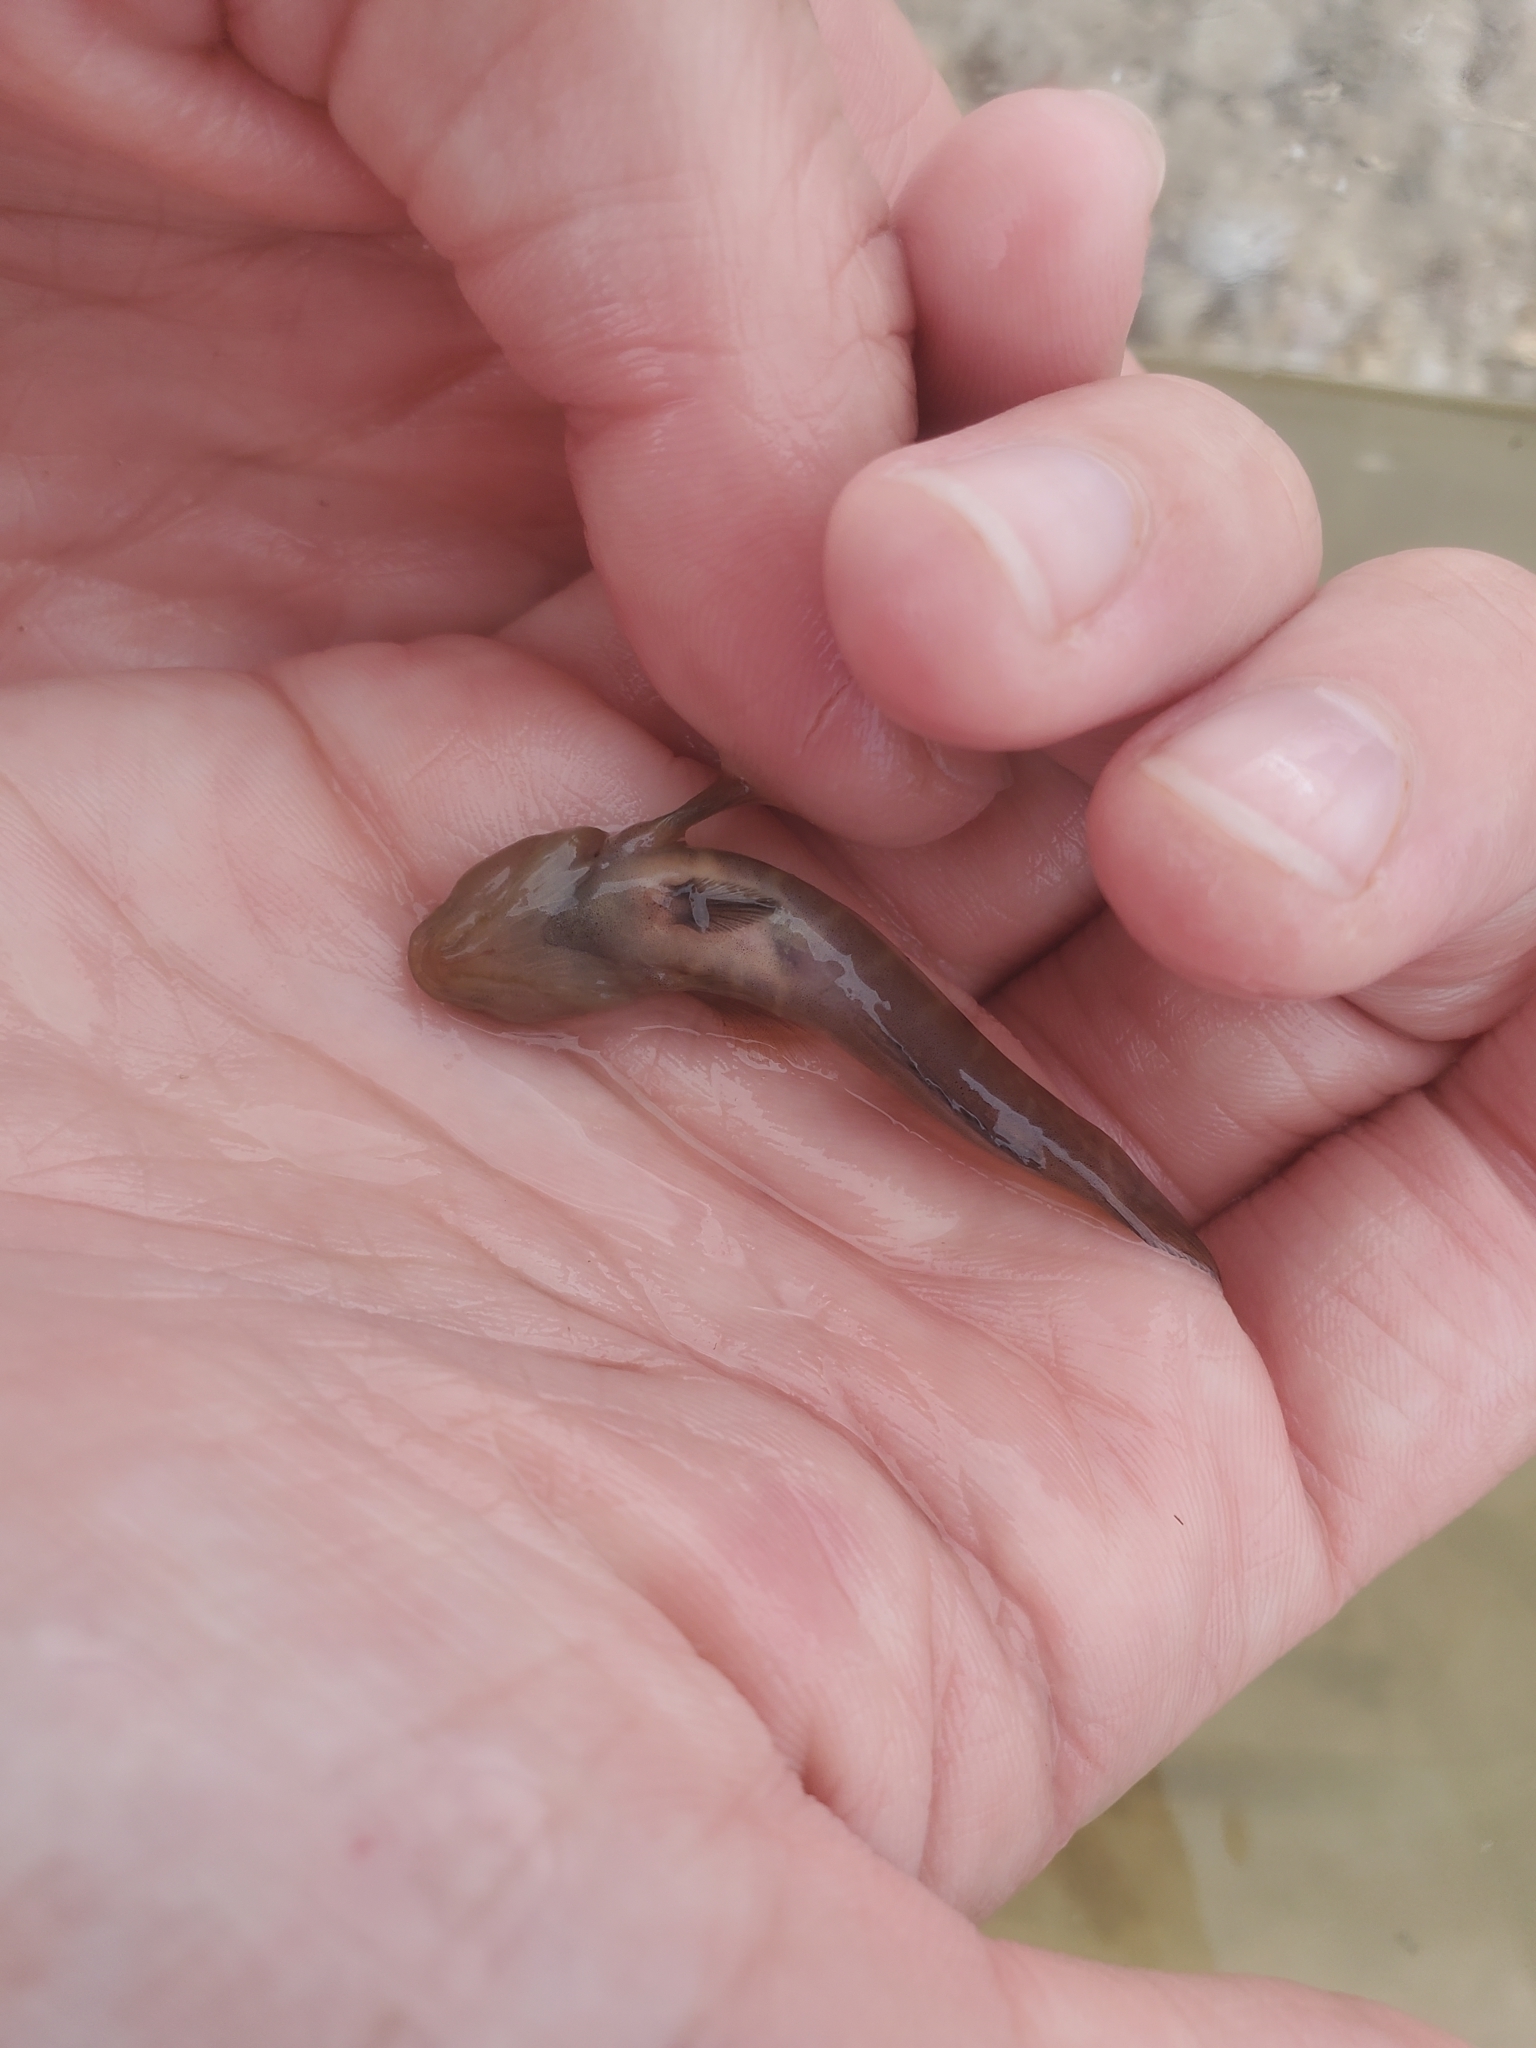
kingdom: Animalia
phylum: Chordata
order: Perciformes
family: Gobiidae
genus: Gobiosoma
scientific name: Gobiosoma bosc
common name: Naked goby
